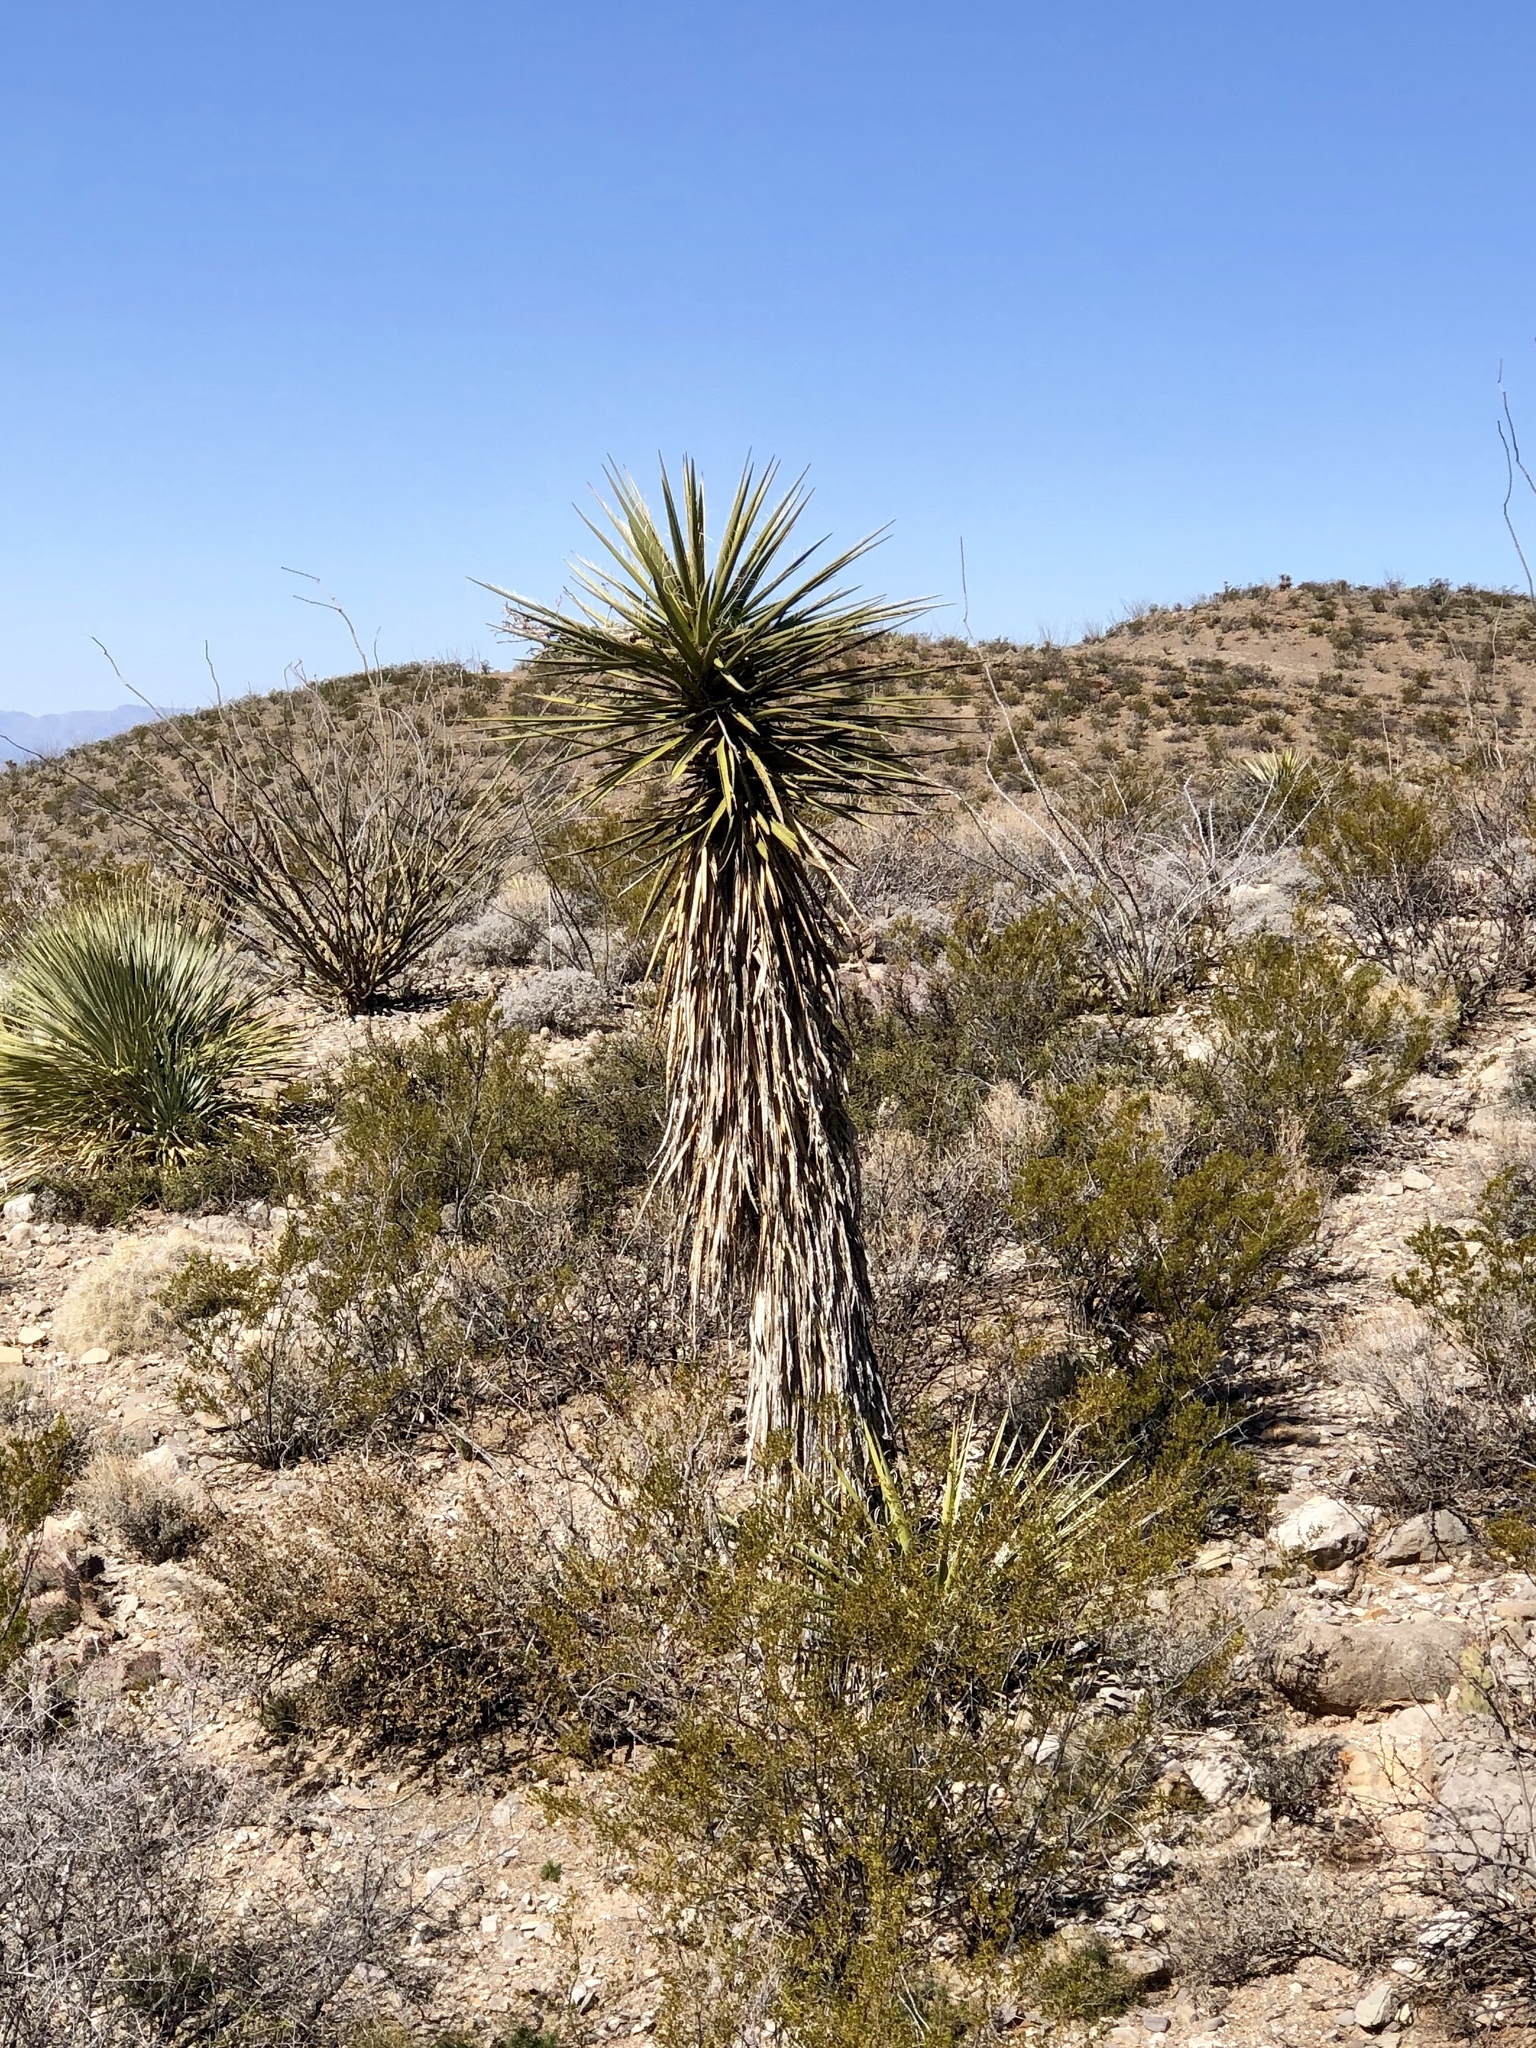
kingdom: Plantae
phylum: Tracheophyta
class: Liliopsida
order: Asparagales
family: Asparagaceae
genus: Yucca
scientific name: Yucca treculiana
